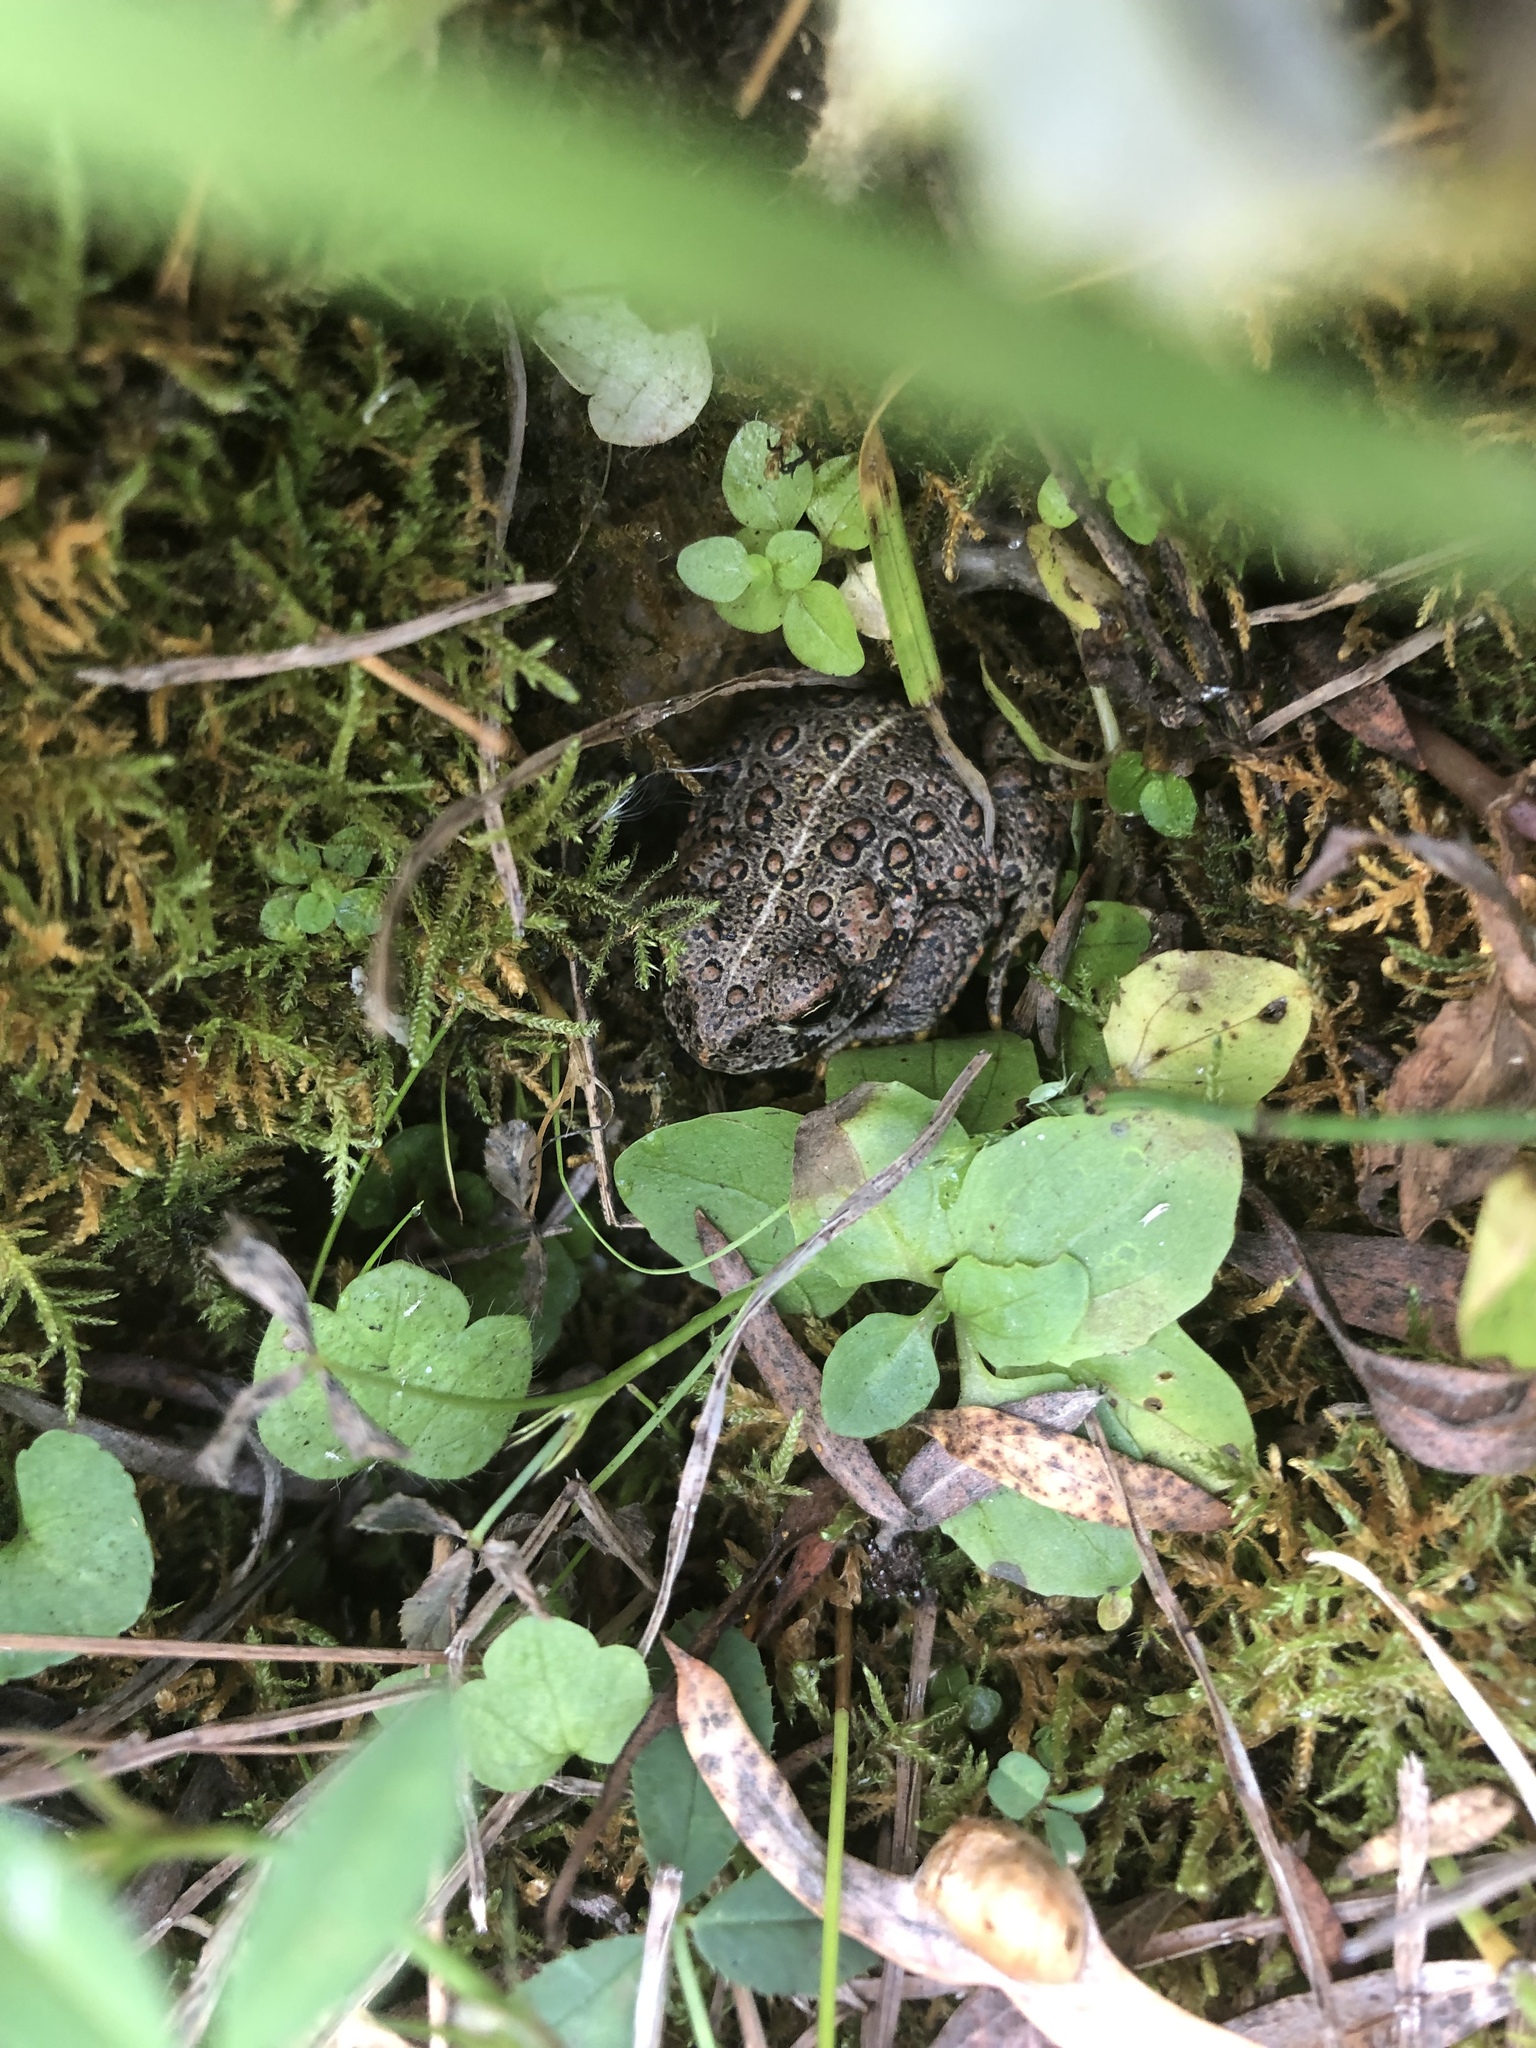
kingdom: Animalia
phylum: Chordata
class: Amphibia
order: Anura
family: Bufonidae
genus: Anaxyrus
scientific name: Anaxyrus boreas
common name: Western toad
